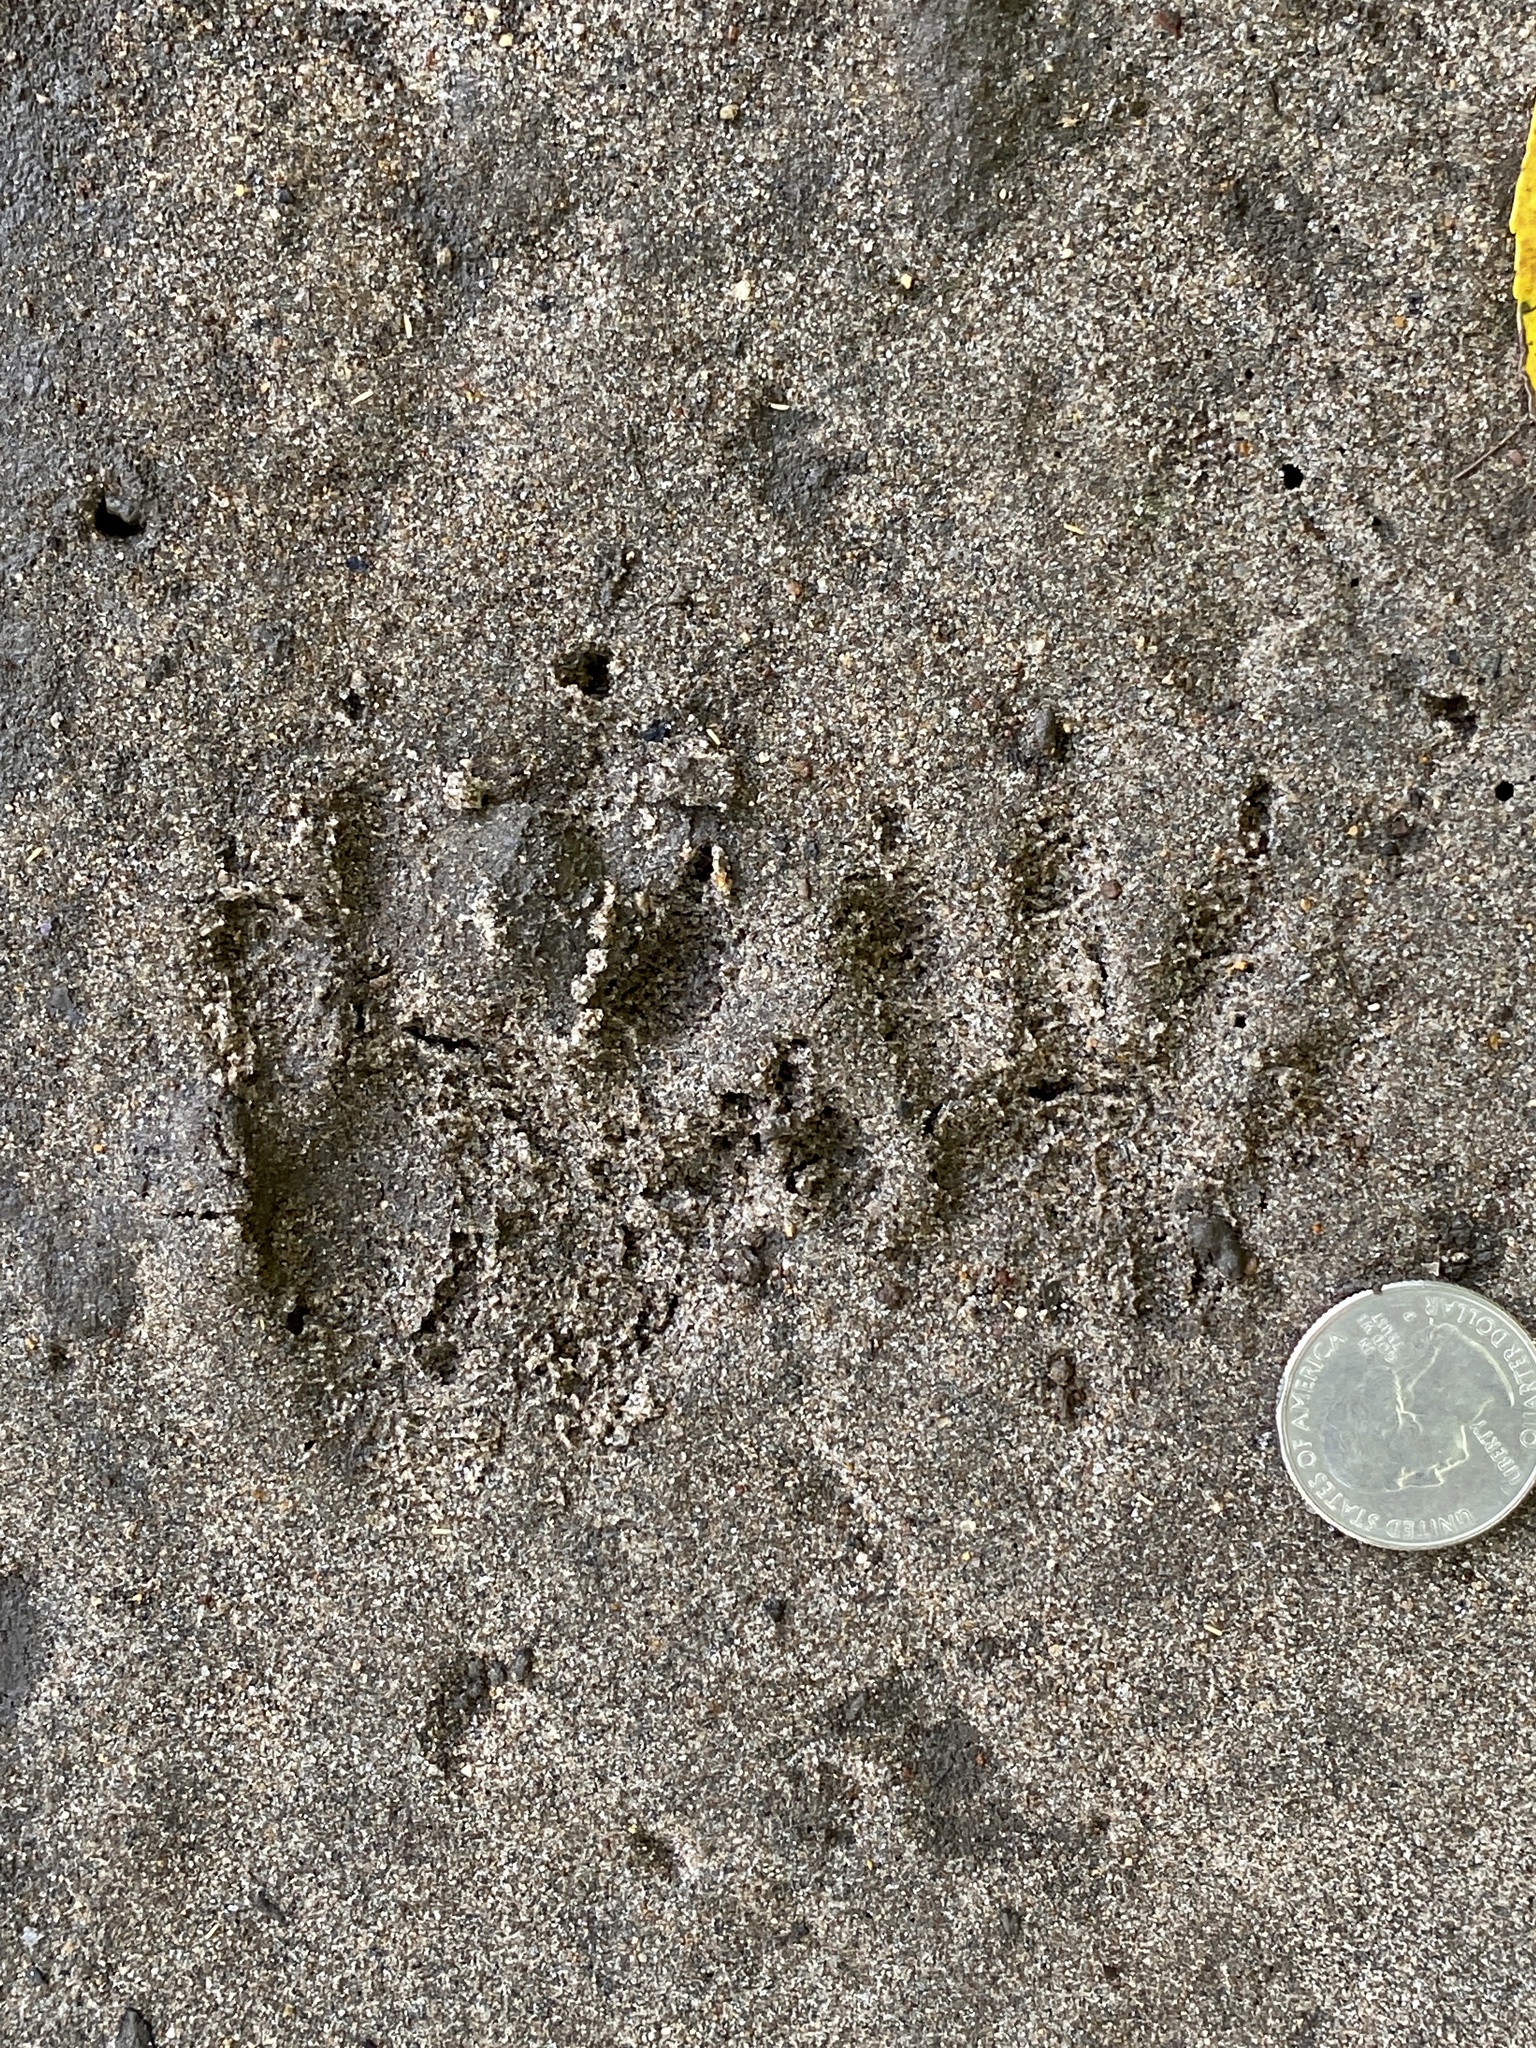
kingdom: Animalia
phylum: Chordata
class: Mammalia
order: Carnivora
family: Procyonidae
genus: Procyon
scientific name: Procyon lotor
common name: Raccoon
